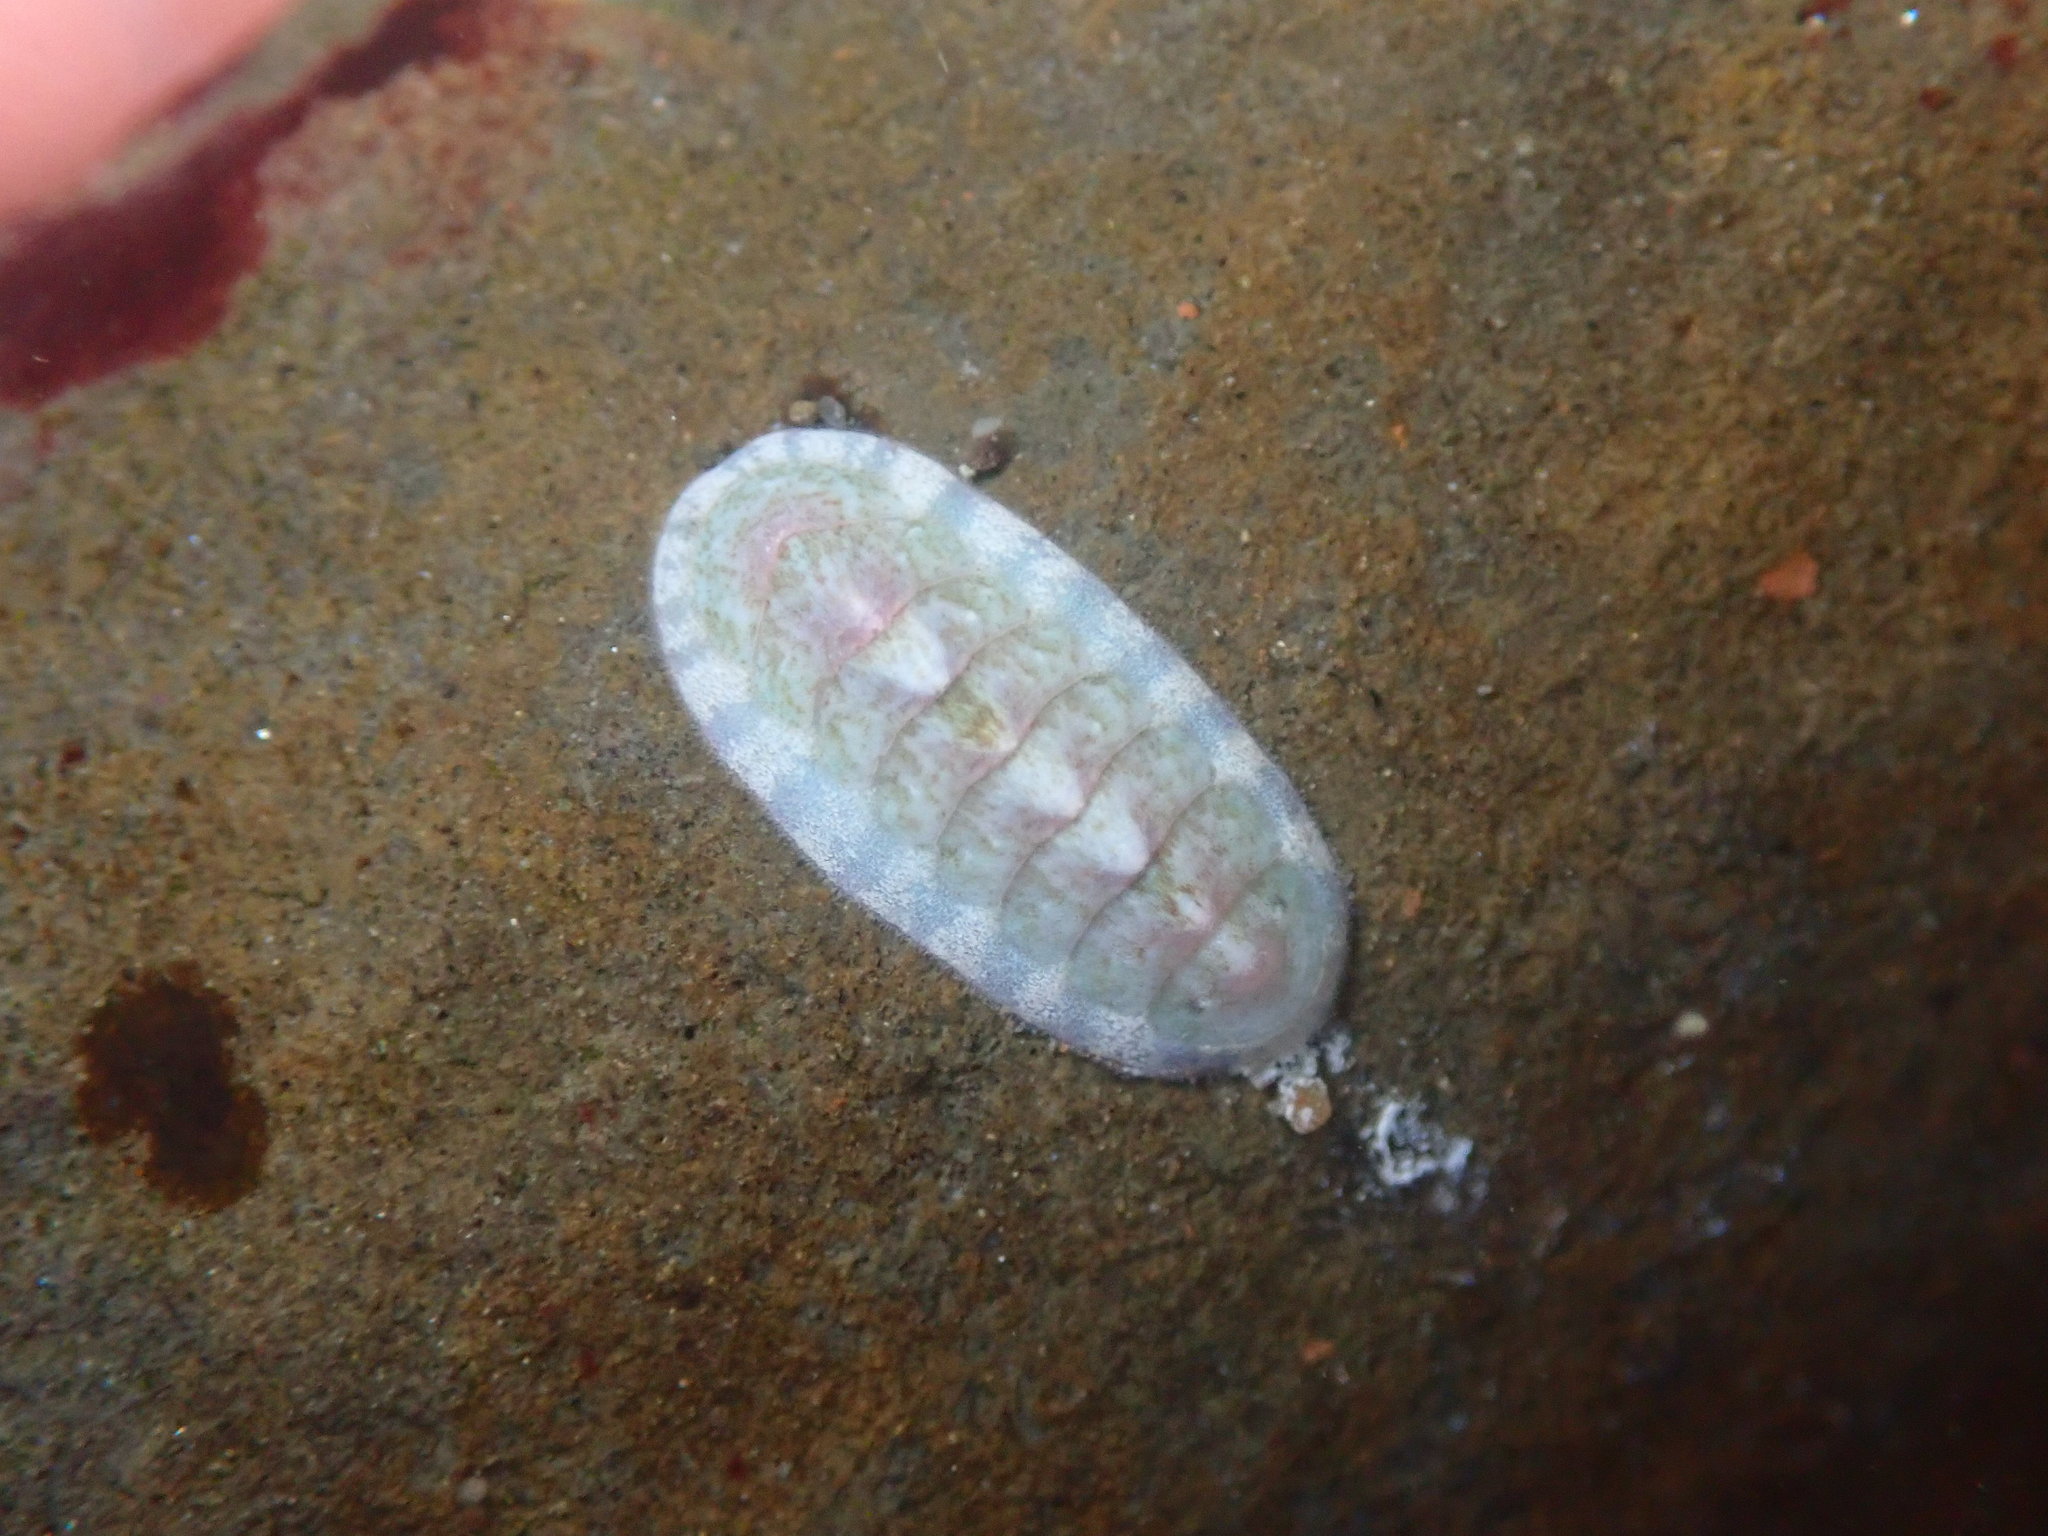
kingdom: Animalia
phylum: Mollusca
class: Polyplacophora
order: Chitonida
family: Ischnochitonidae
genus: Stenoplax
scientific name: Stenoplax heathiana
